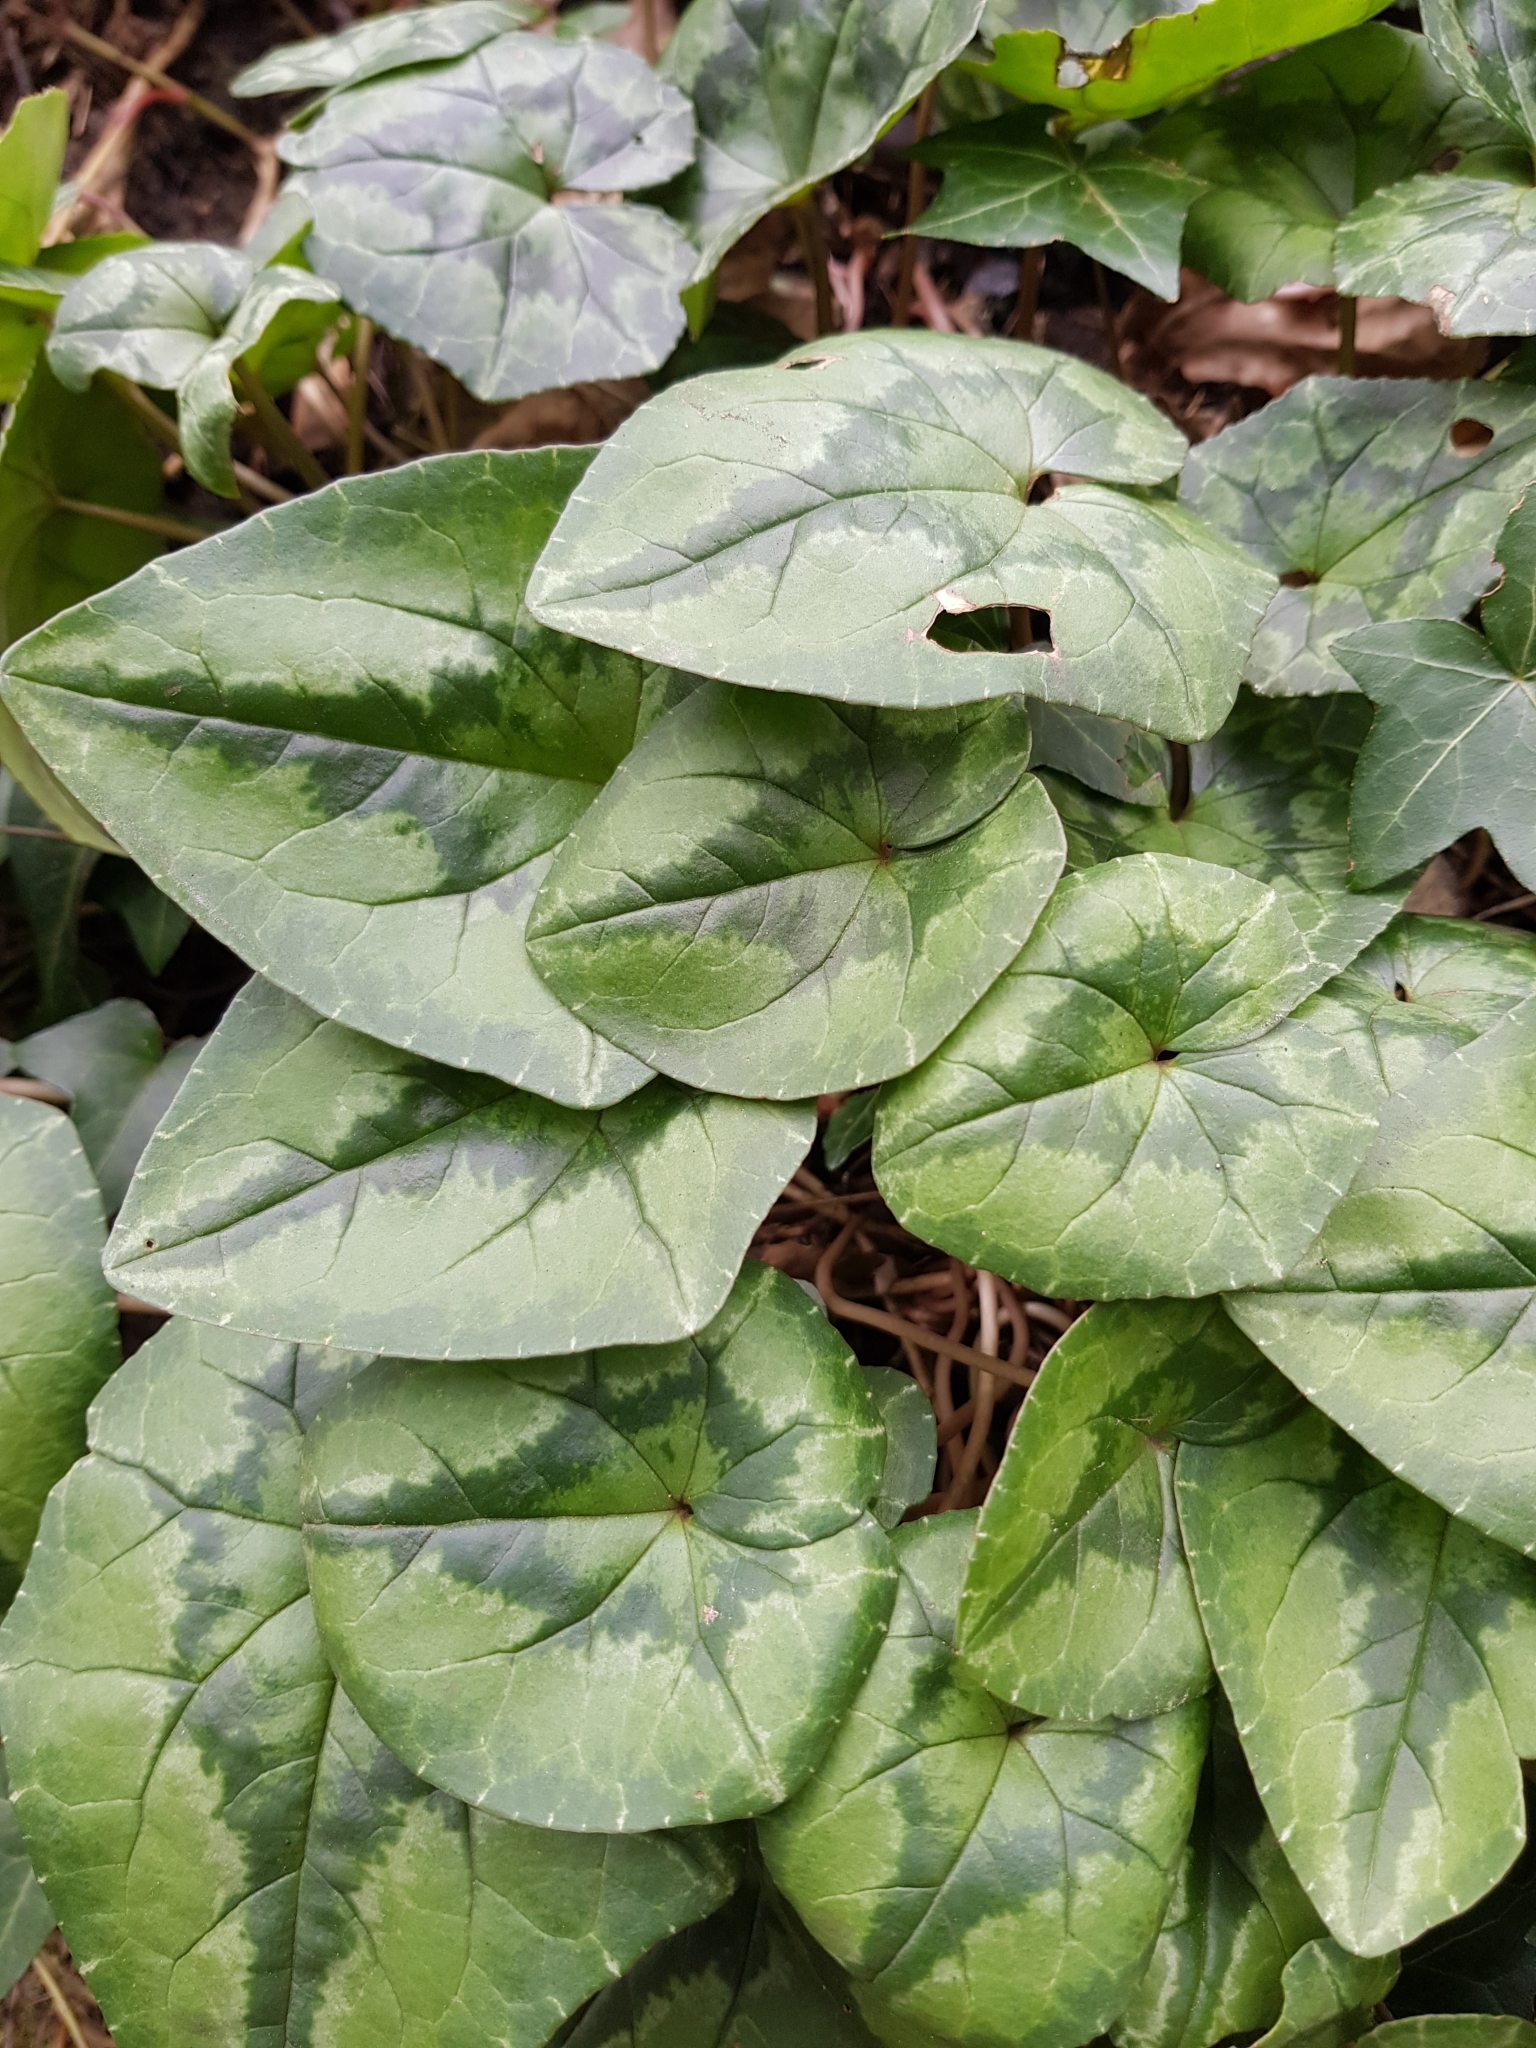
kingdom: Plantae
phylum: Tracheophyta
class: Magnoliopsida
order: Ericales
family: Primulaceae
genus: Cyclamen
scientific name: Cyclamen hederifolium
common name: Sowbread
